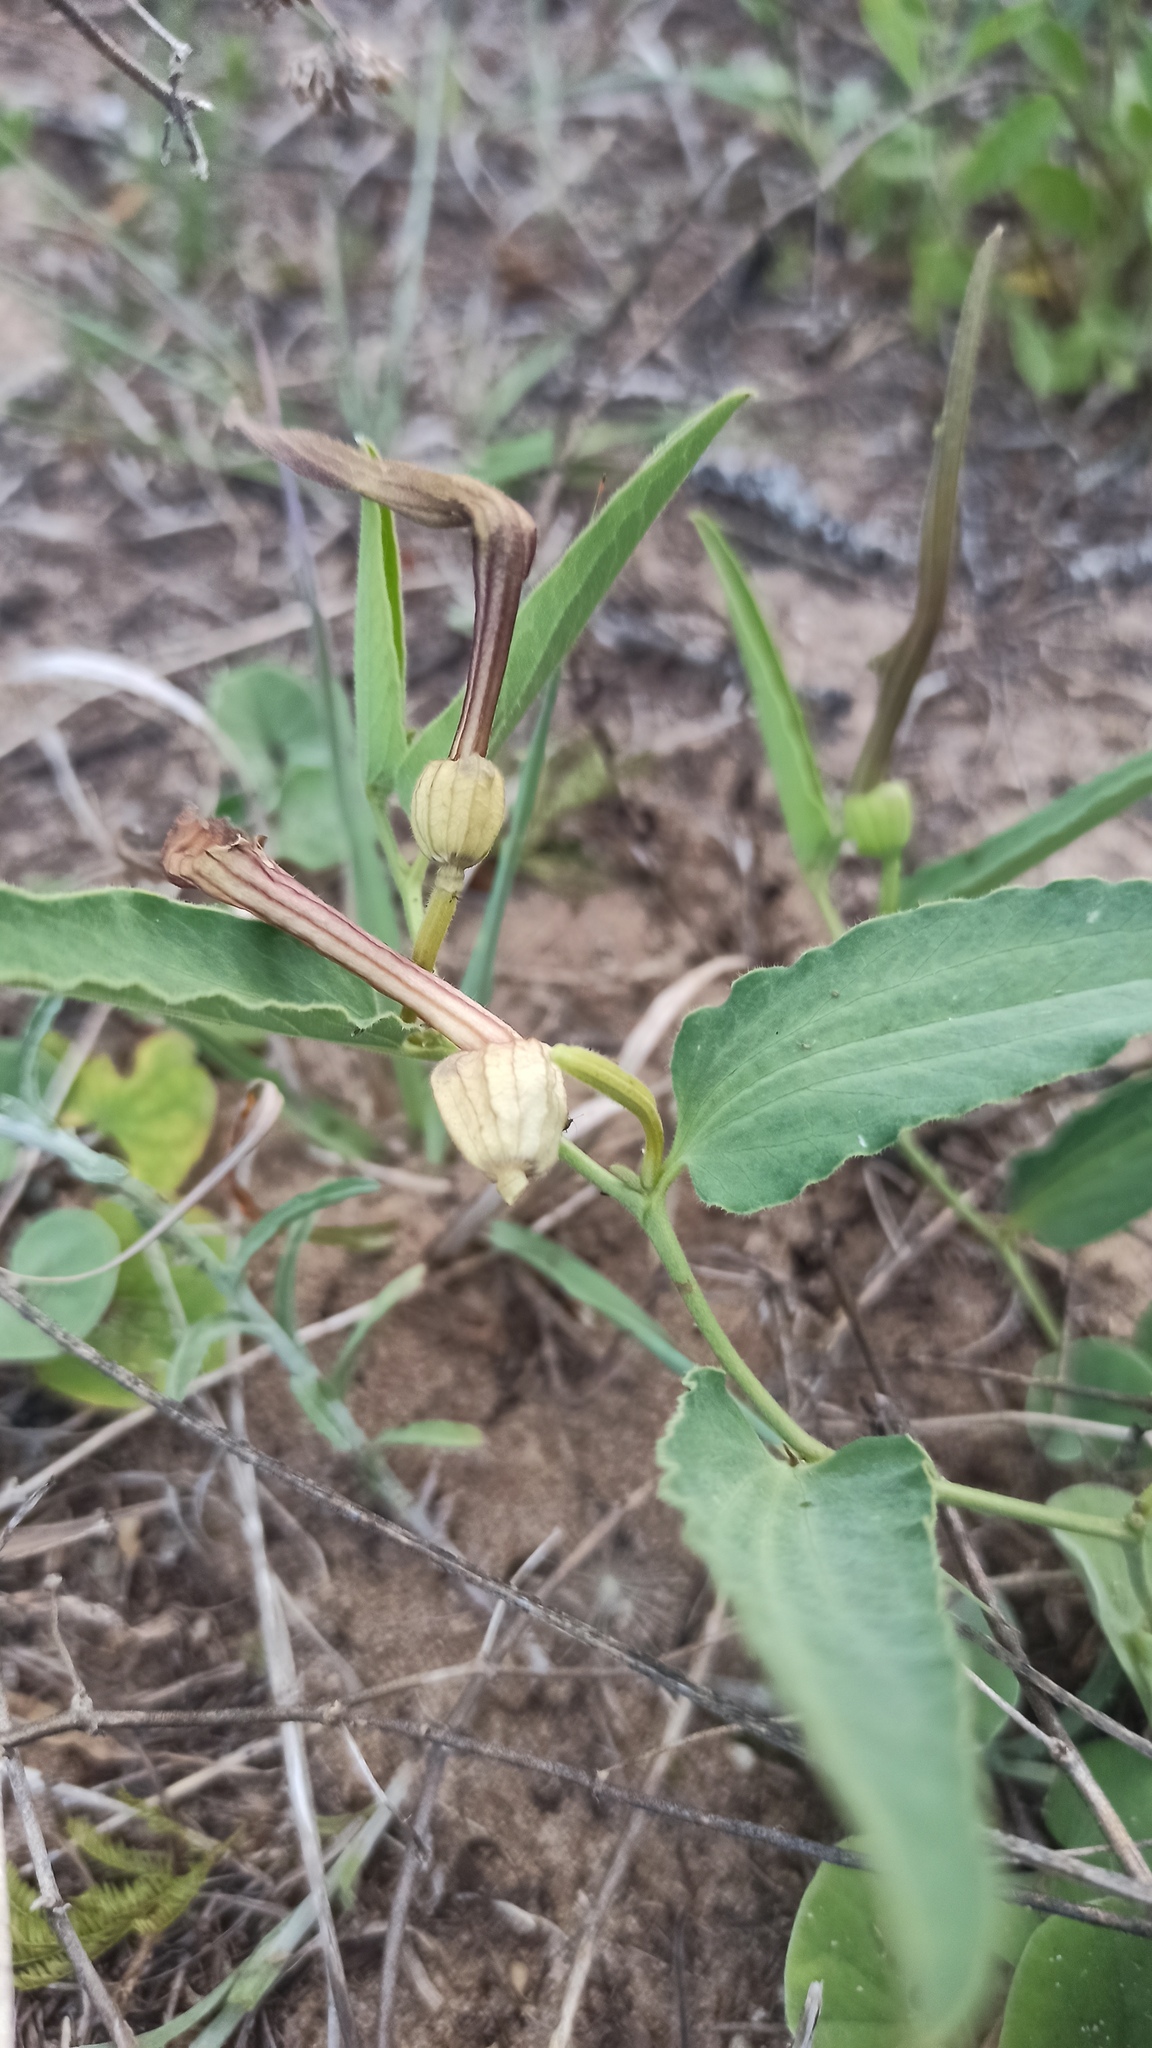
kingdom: Plantae
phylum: Tracheophyta
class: Magnoliopsida
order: Piperales
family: Aristolochiaceae
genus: Aristolochia
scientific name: Aristolochia angustifolia
